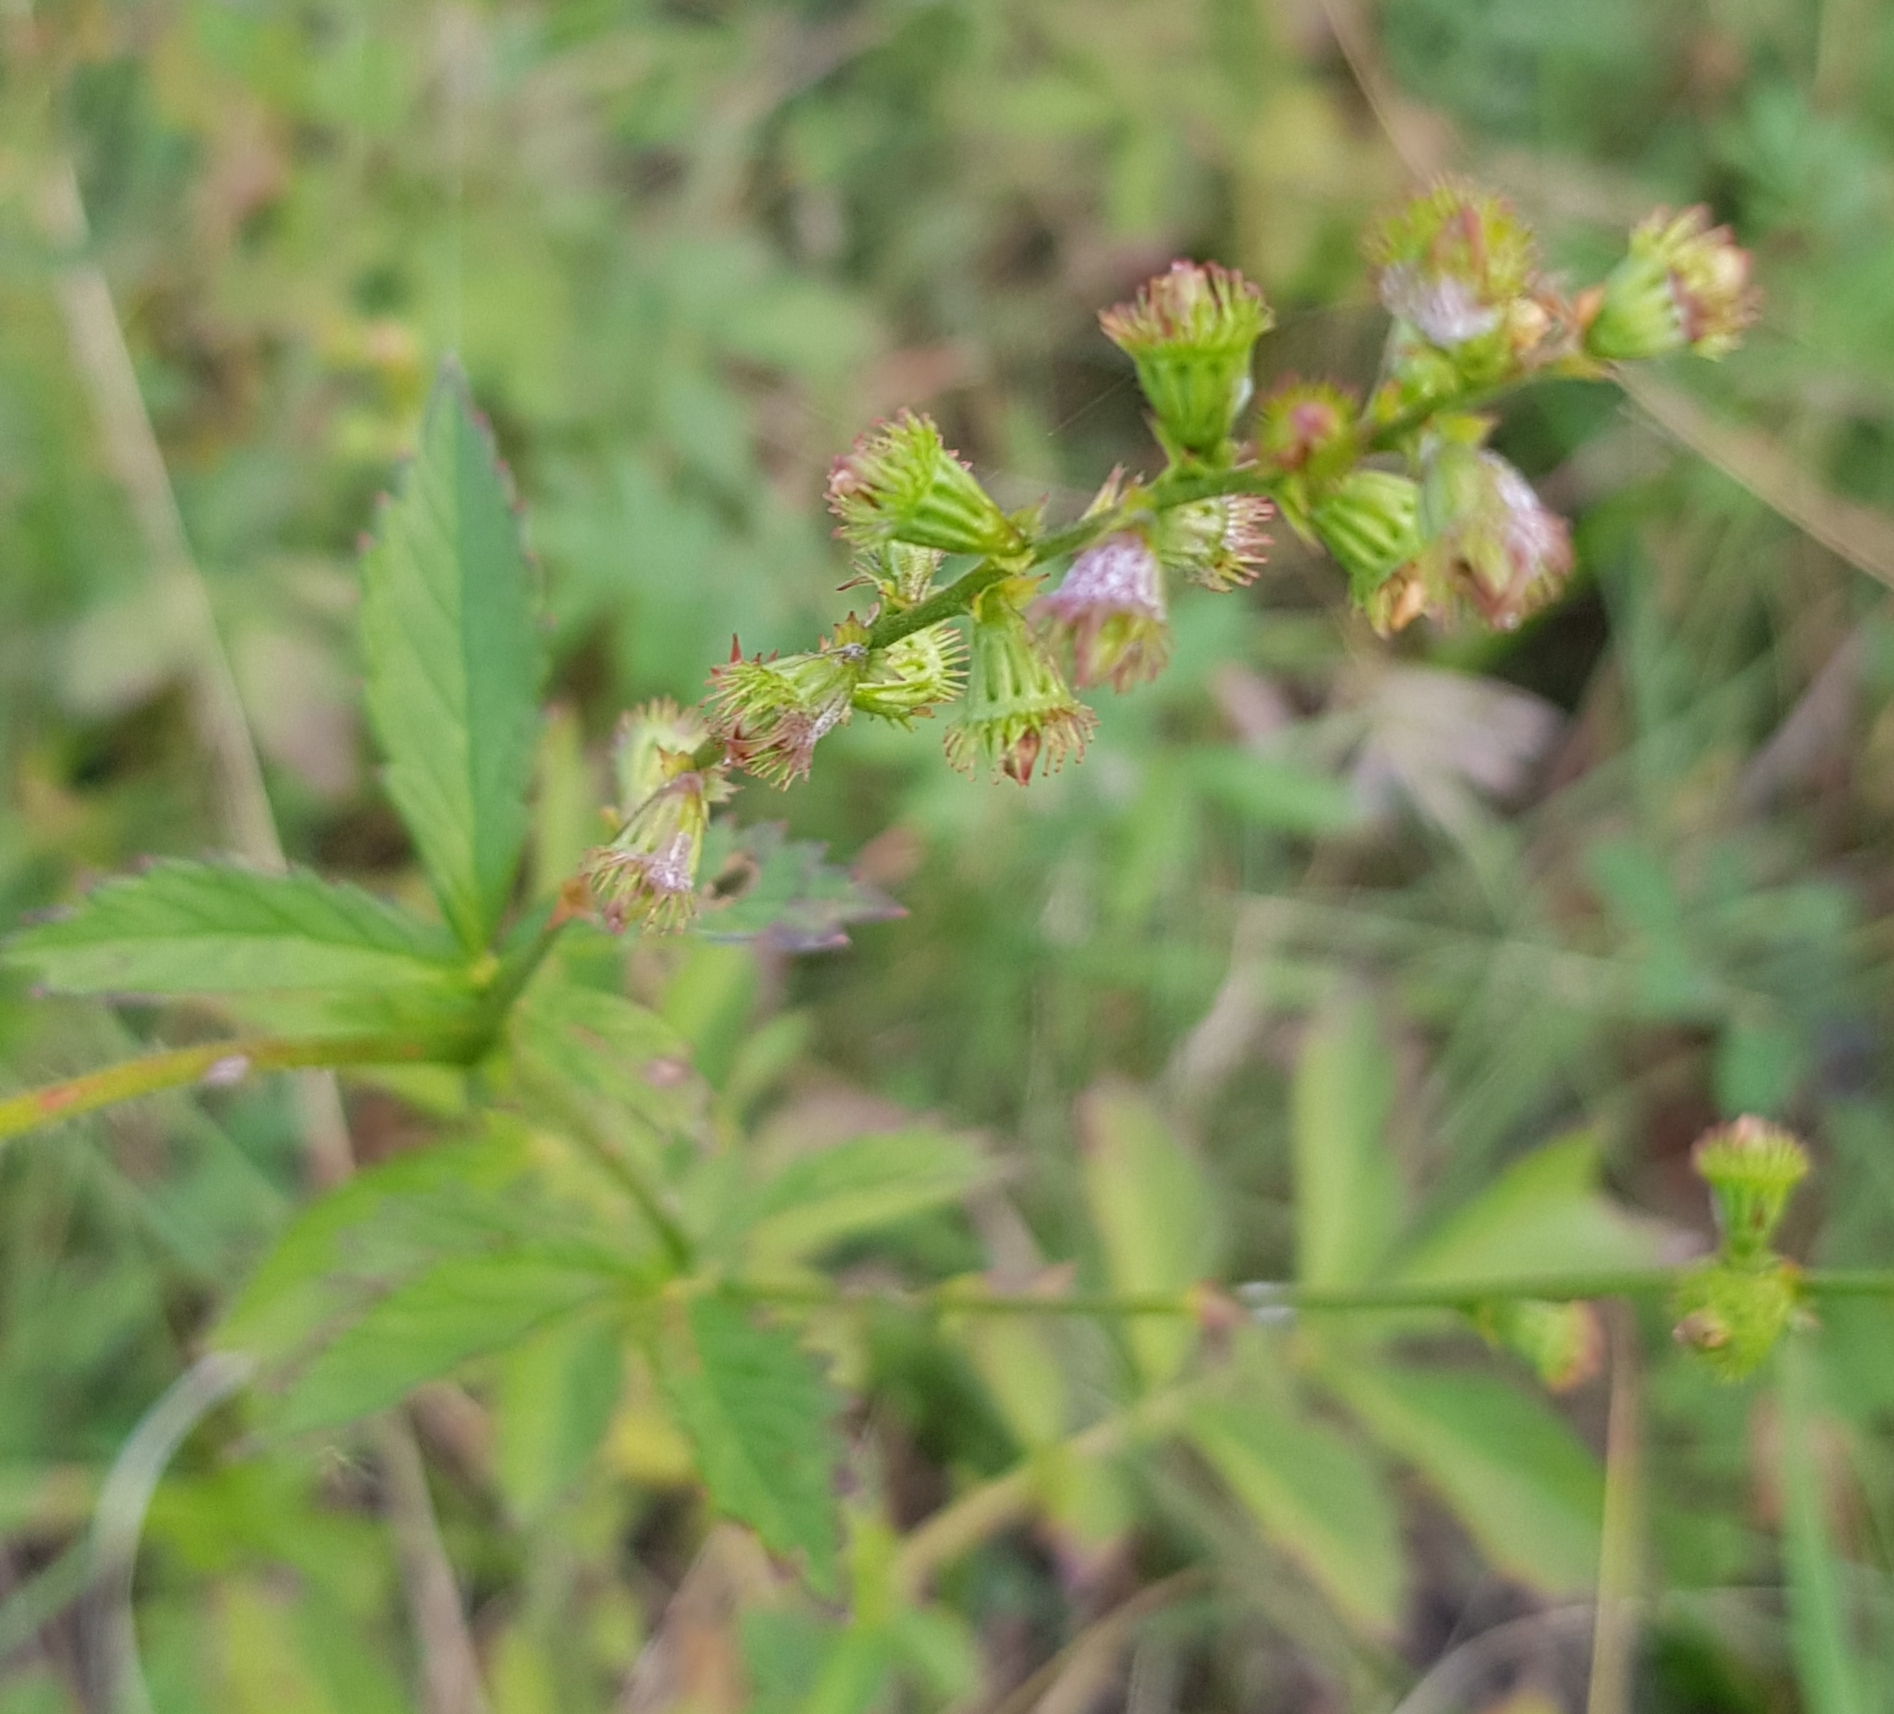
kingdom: Plantae
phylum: Tracheophyta
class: Magnoliopsida
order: Rosales
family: Rosaceae
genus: Agrimonia
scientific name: Agrimonia pilosa
